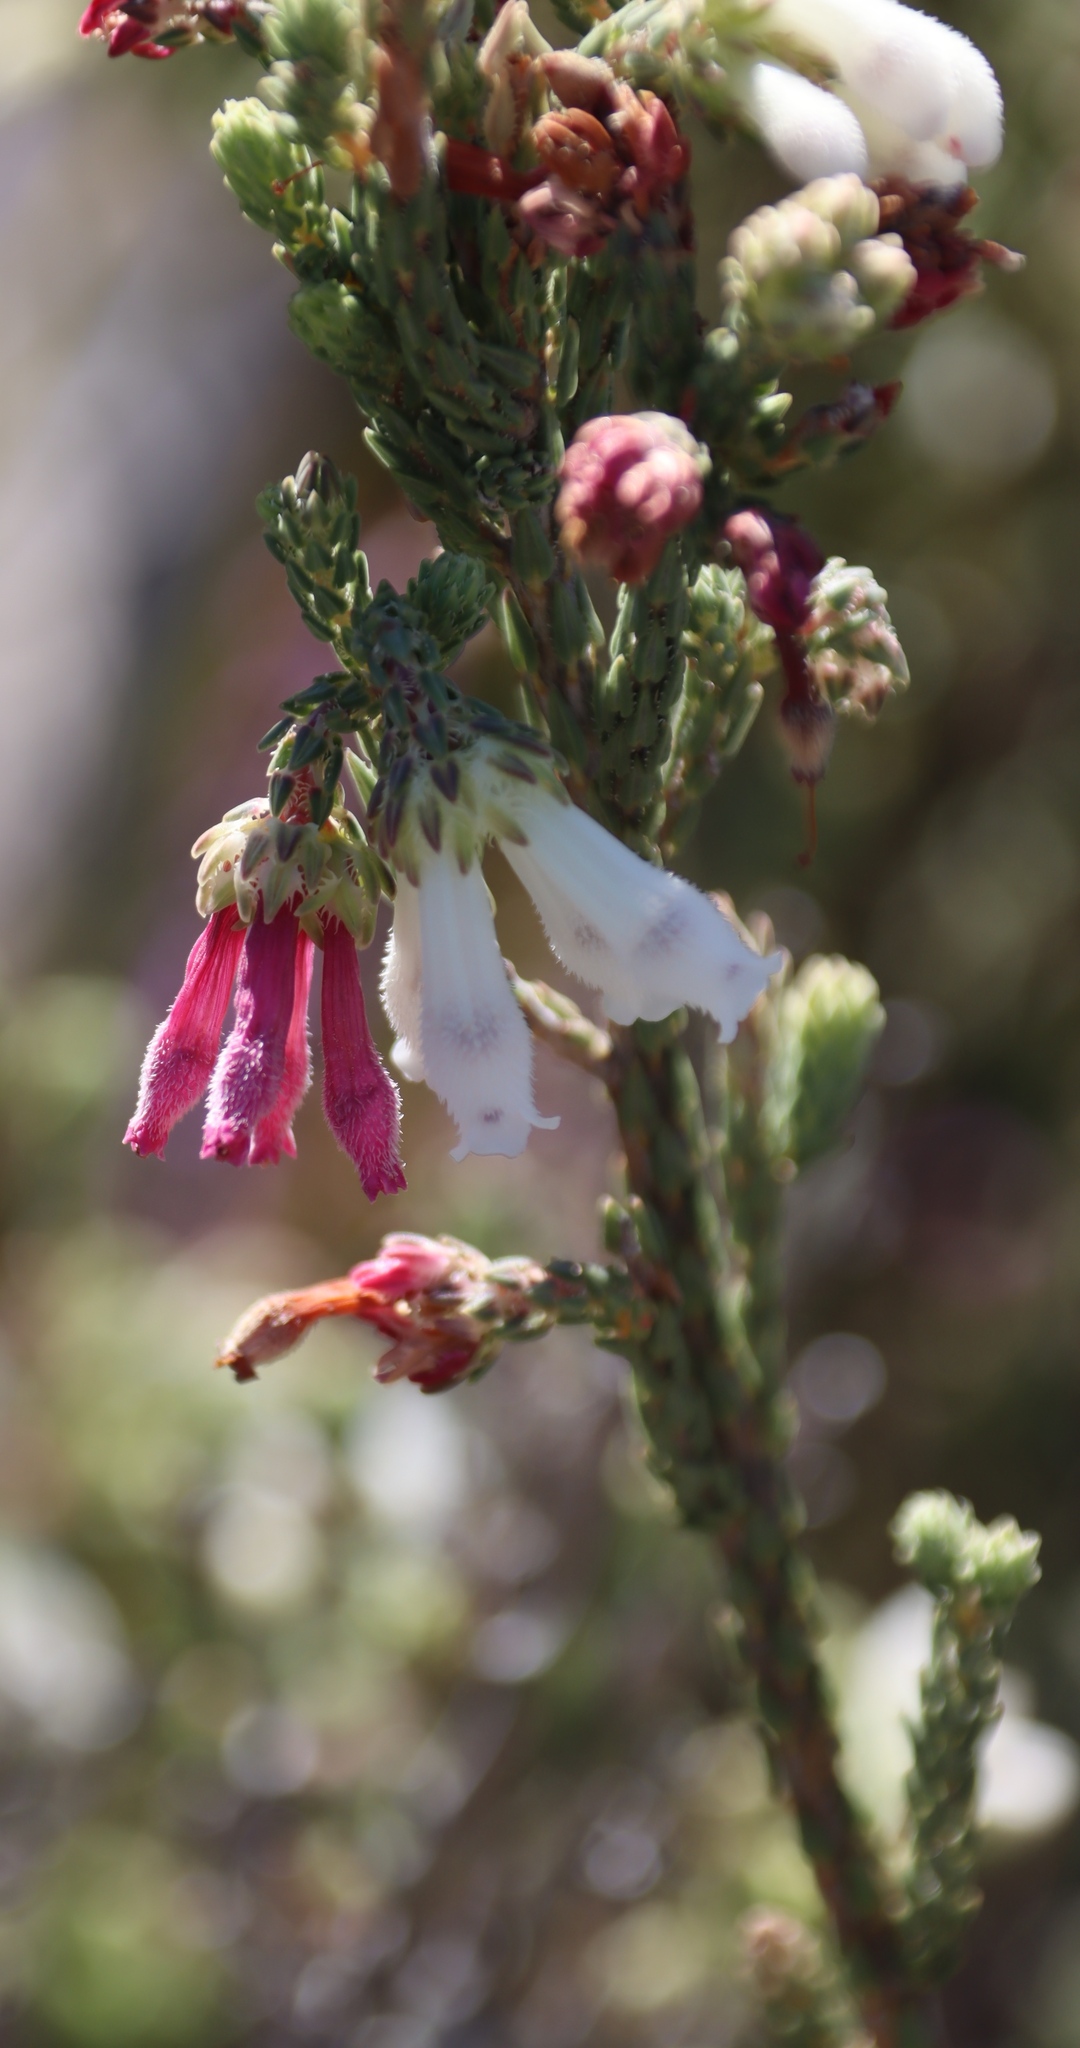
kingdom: Plantae
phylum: Tracheophyta
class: Magnoliopsida
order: Ericales
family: Ericaceae
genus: Erica
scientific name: Erica pectinifolia
